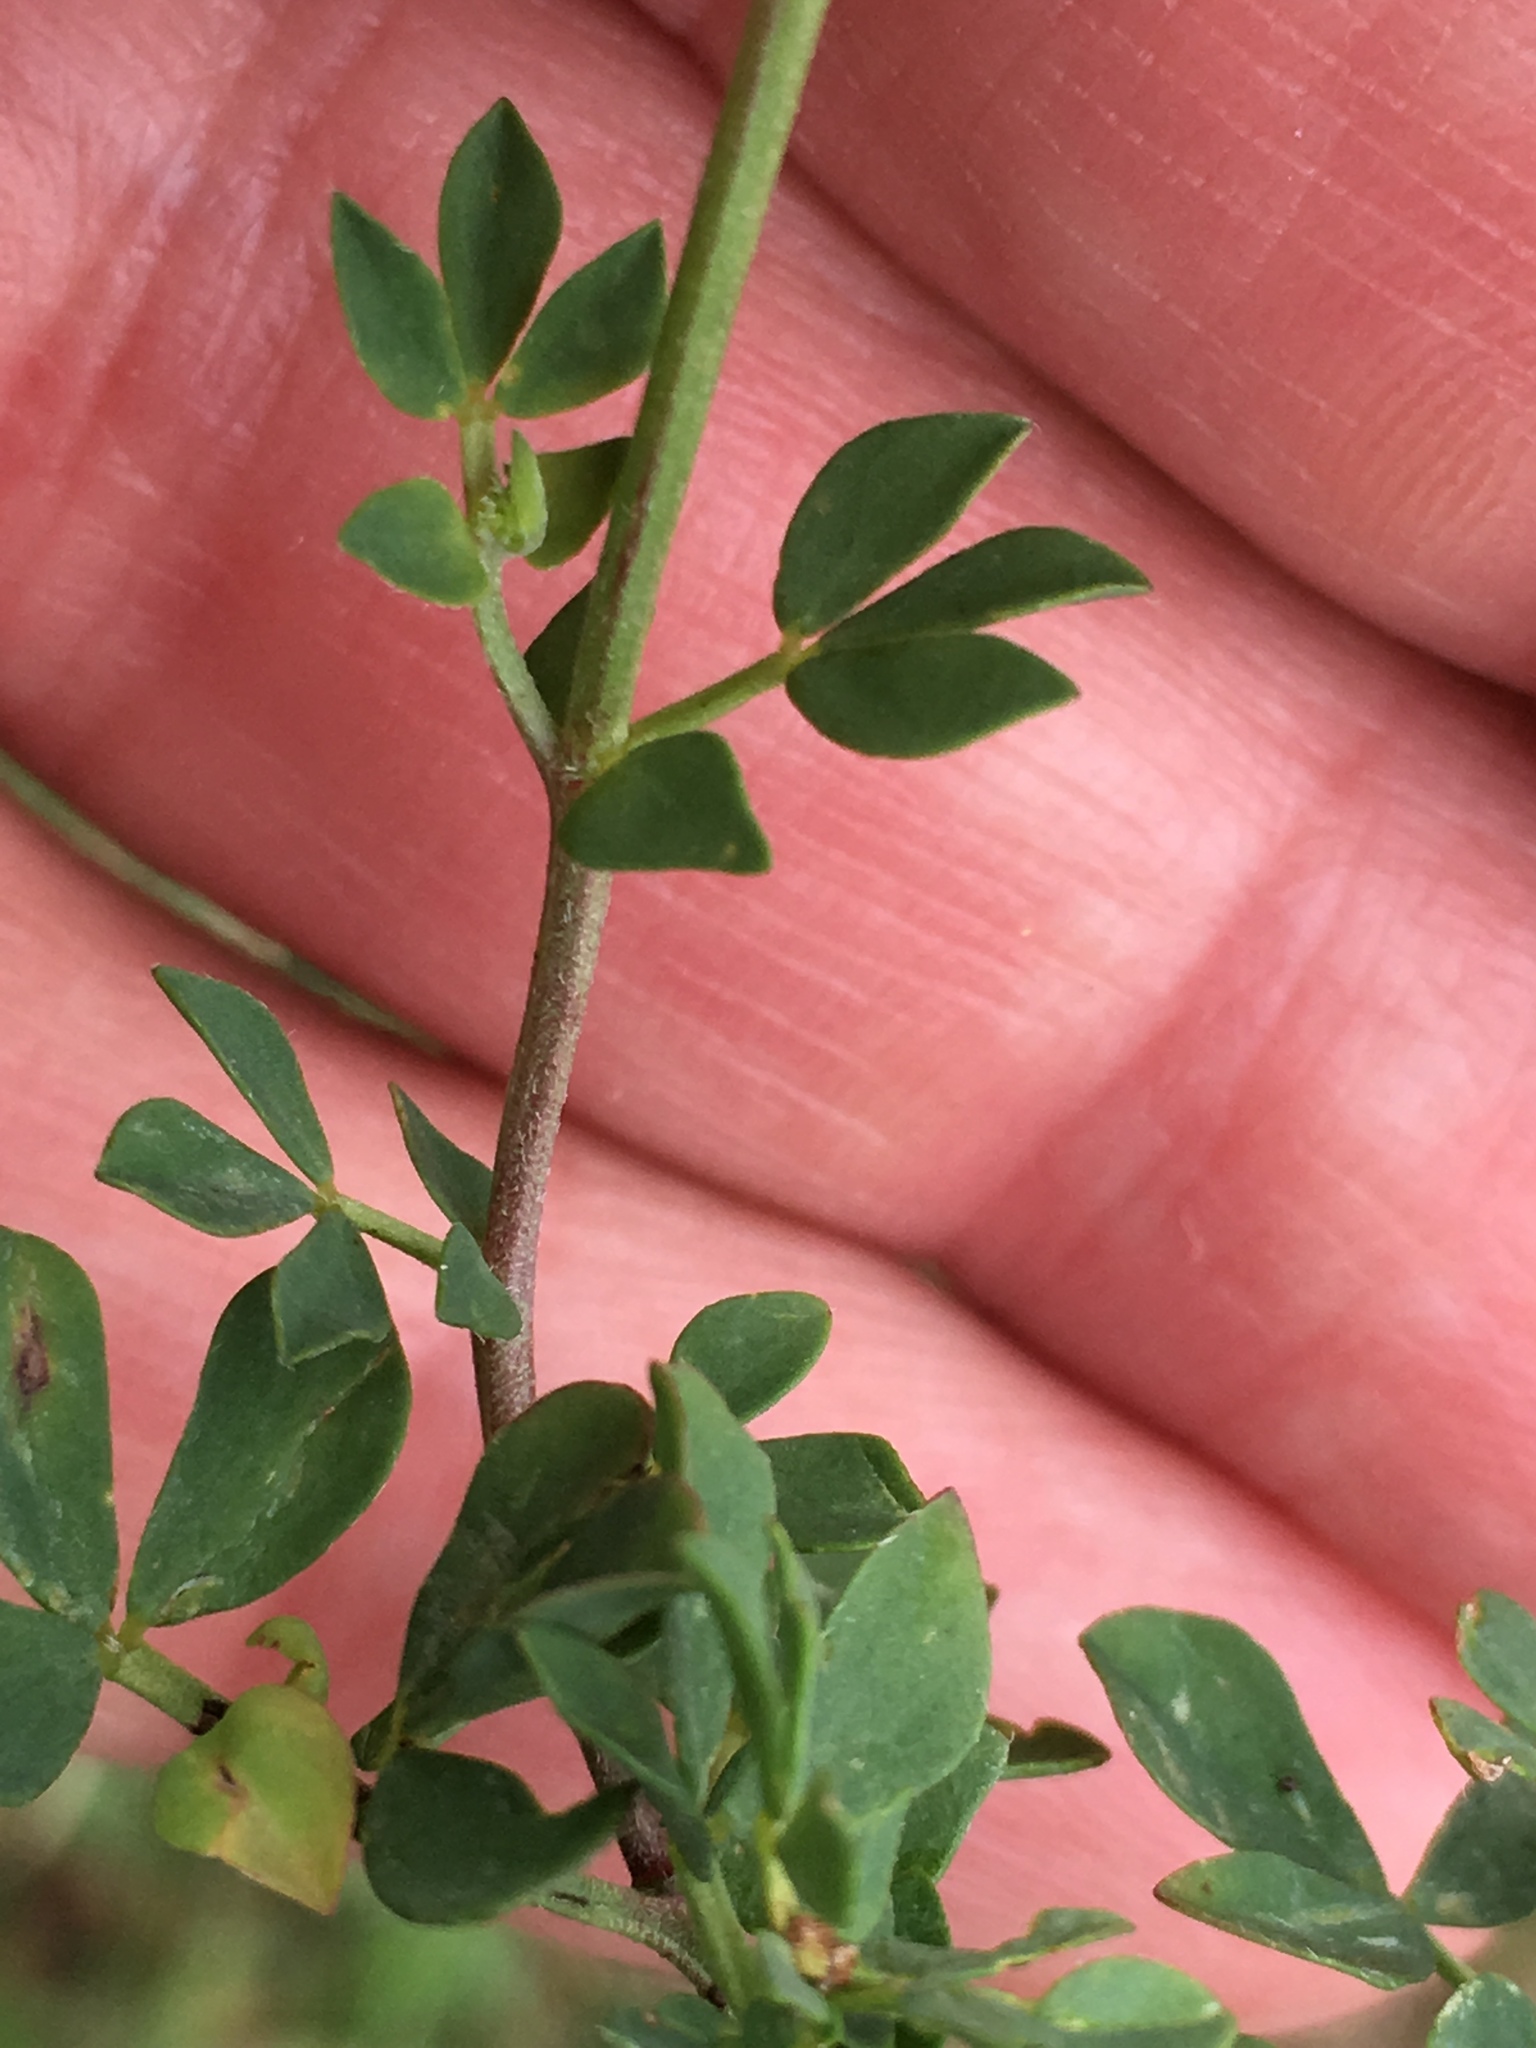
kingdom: Plantae
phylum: Tracheophyta
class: Magnoliopsida
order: Fabales
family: Fabaceae
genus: Lotus
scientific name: Lotus corniculatus
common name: Common bird's-foot-trefoil
